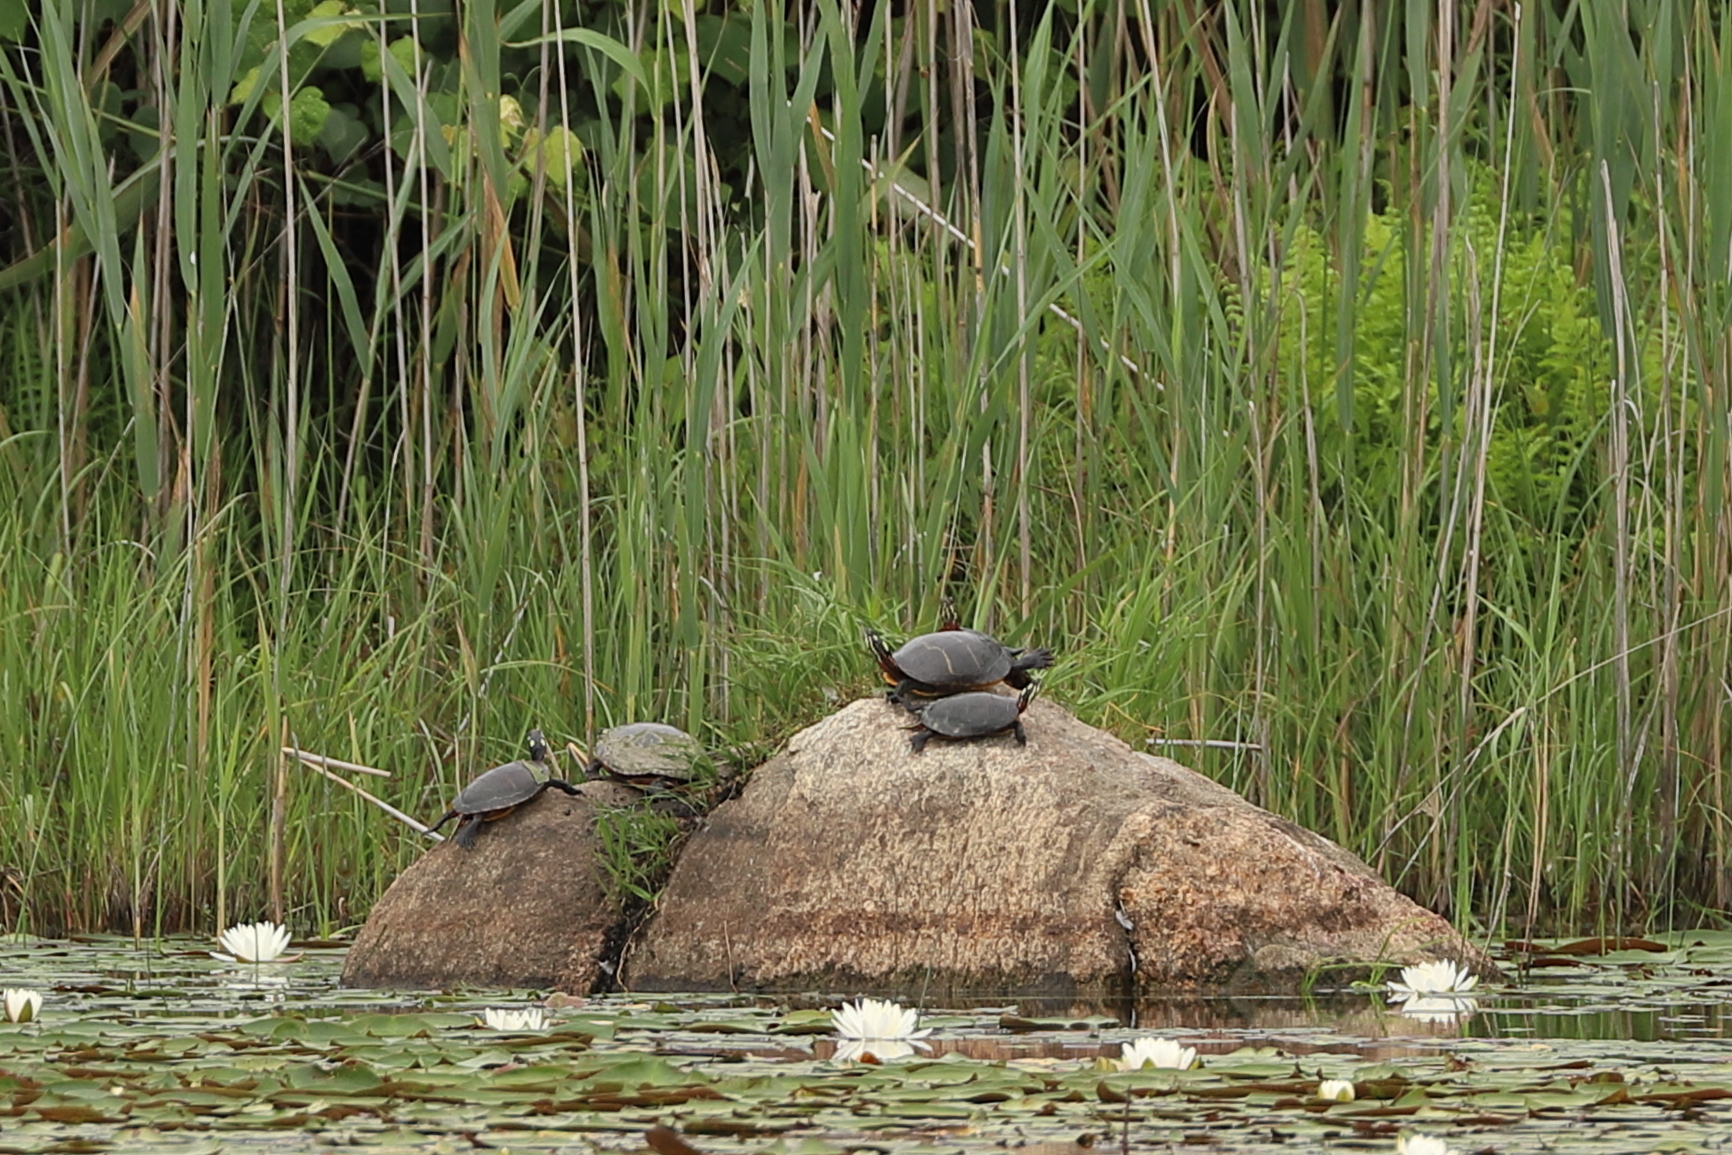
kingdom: Animalia
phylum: Chordata
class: Testudines
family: Emydidae
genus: Chrysemys
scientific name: Chrysemys picta
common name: Painted turtle
